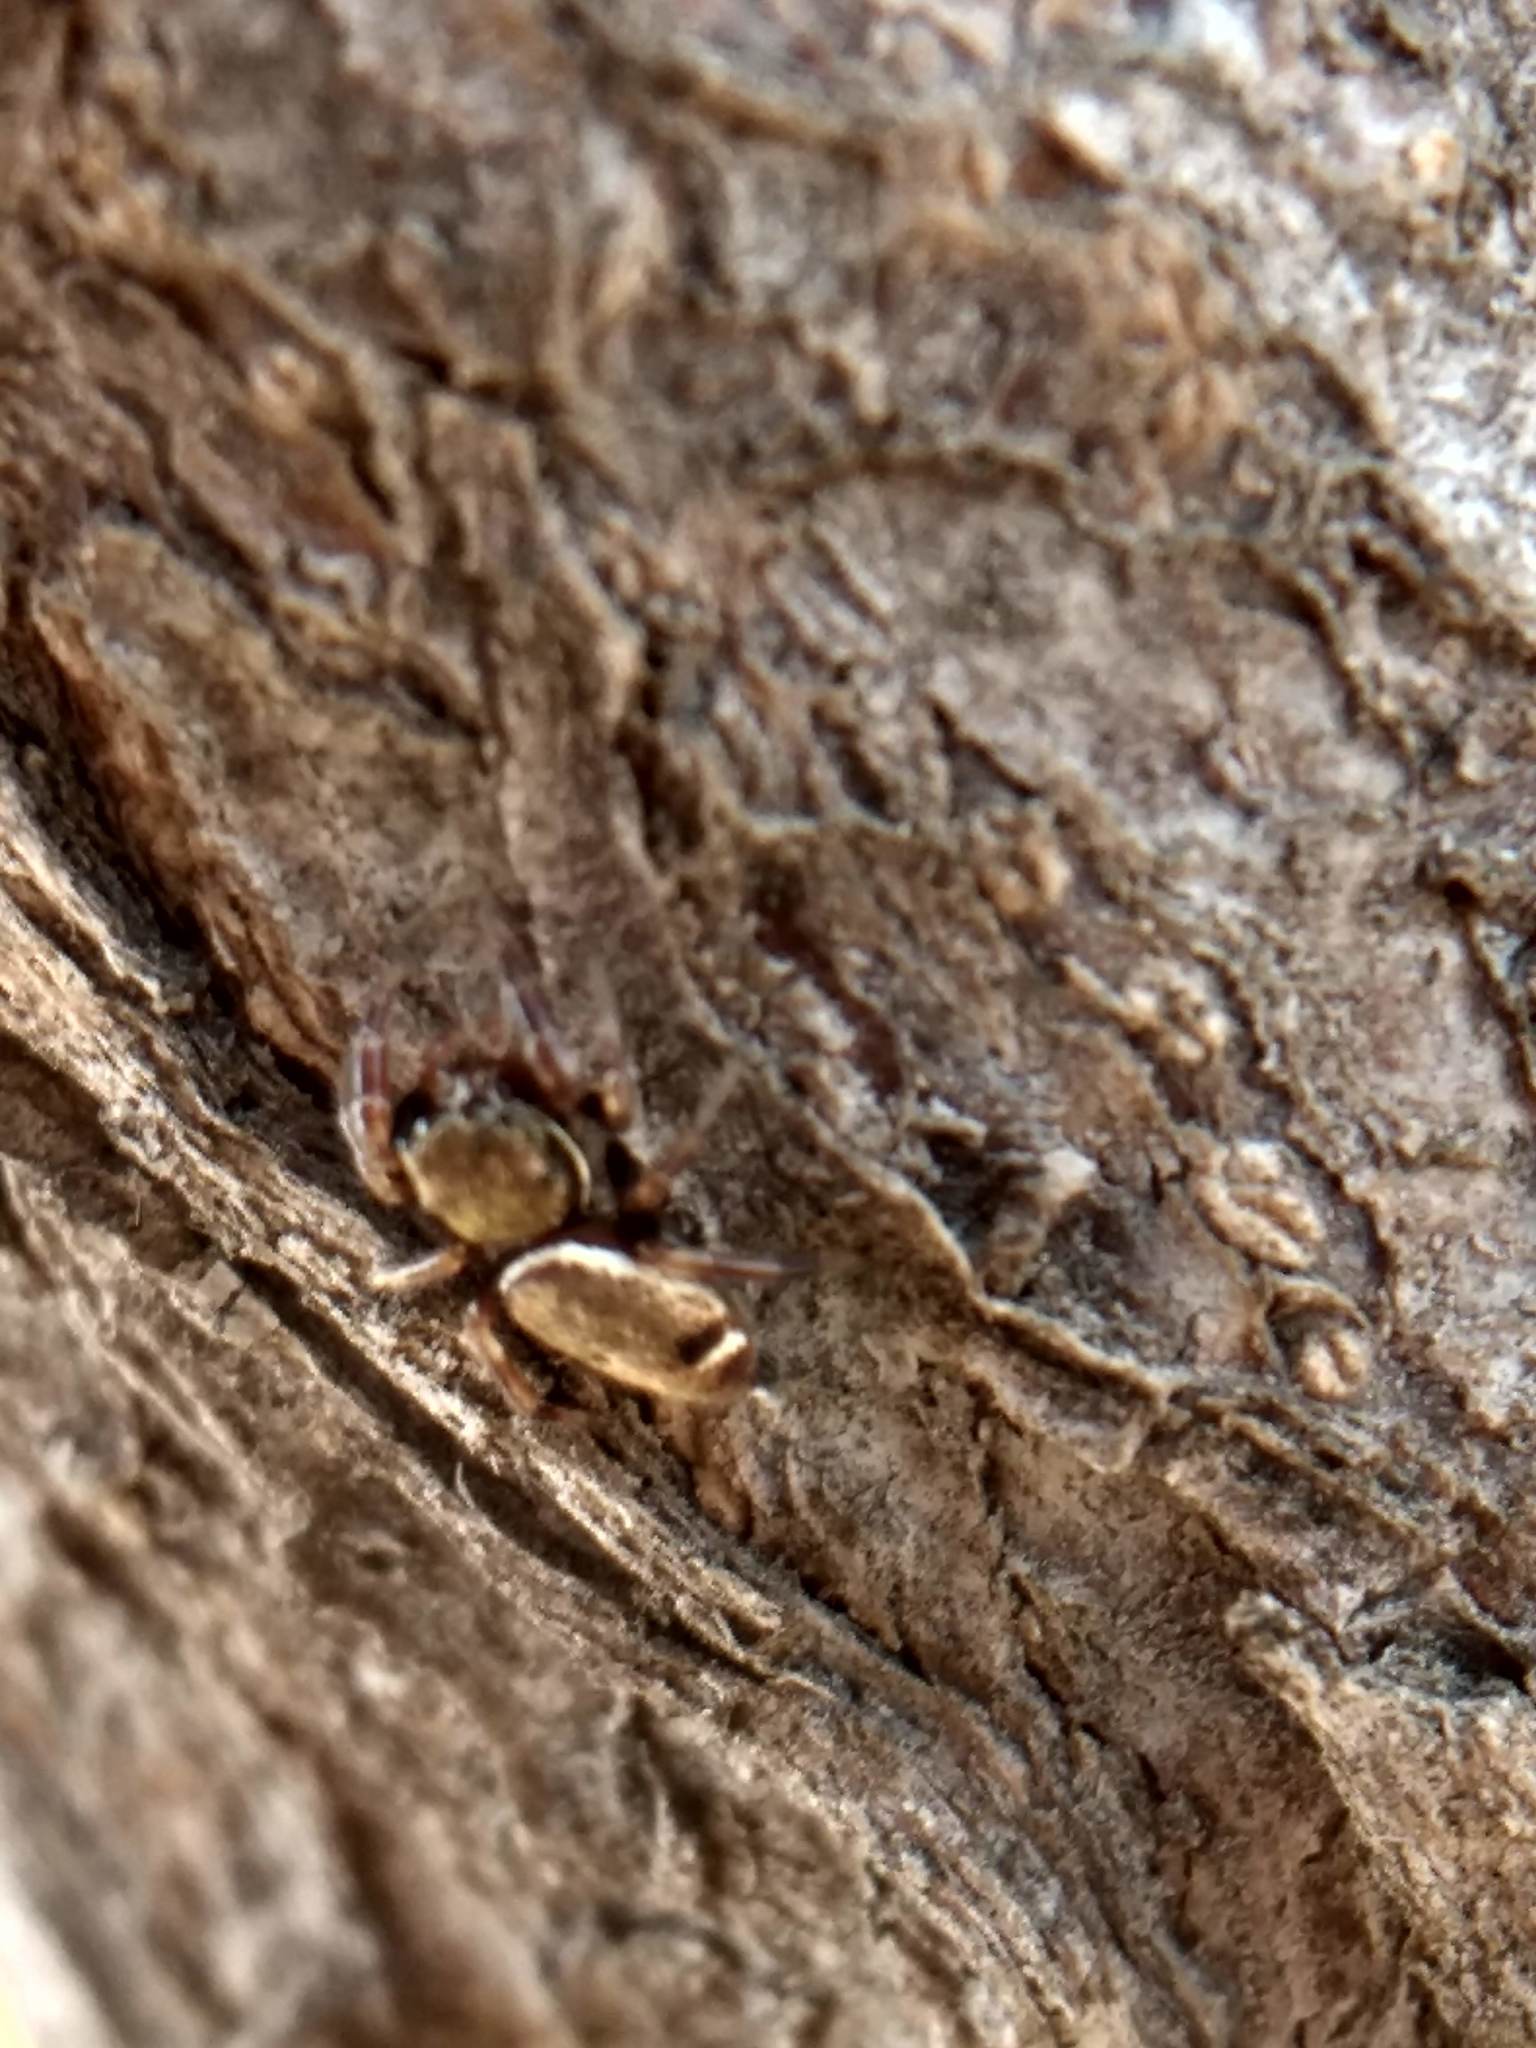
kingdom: Animalia
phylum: Arthropoda
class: Arachnida
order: Araneae
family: Salticidae
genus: Sassacus
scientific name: Sassacus vitis
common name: Jumping spiders
